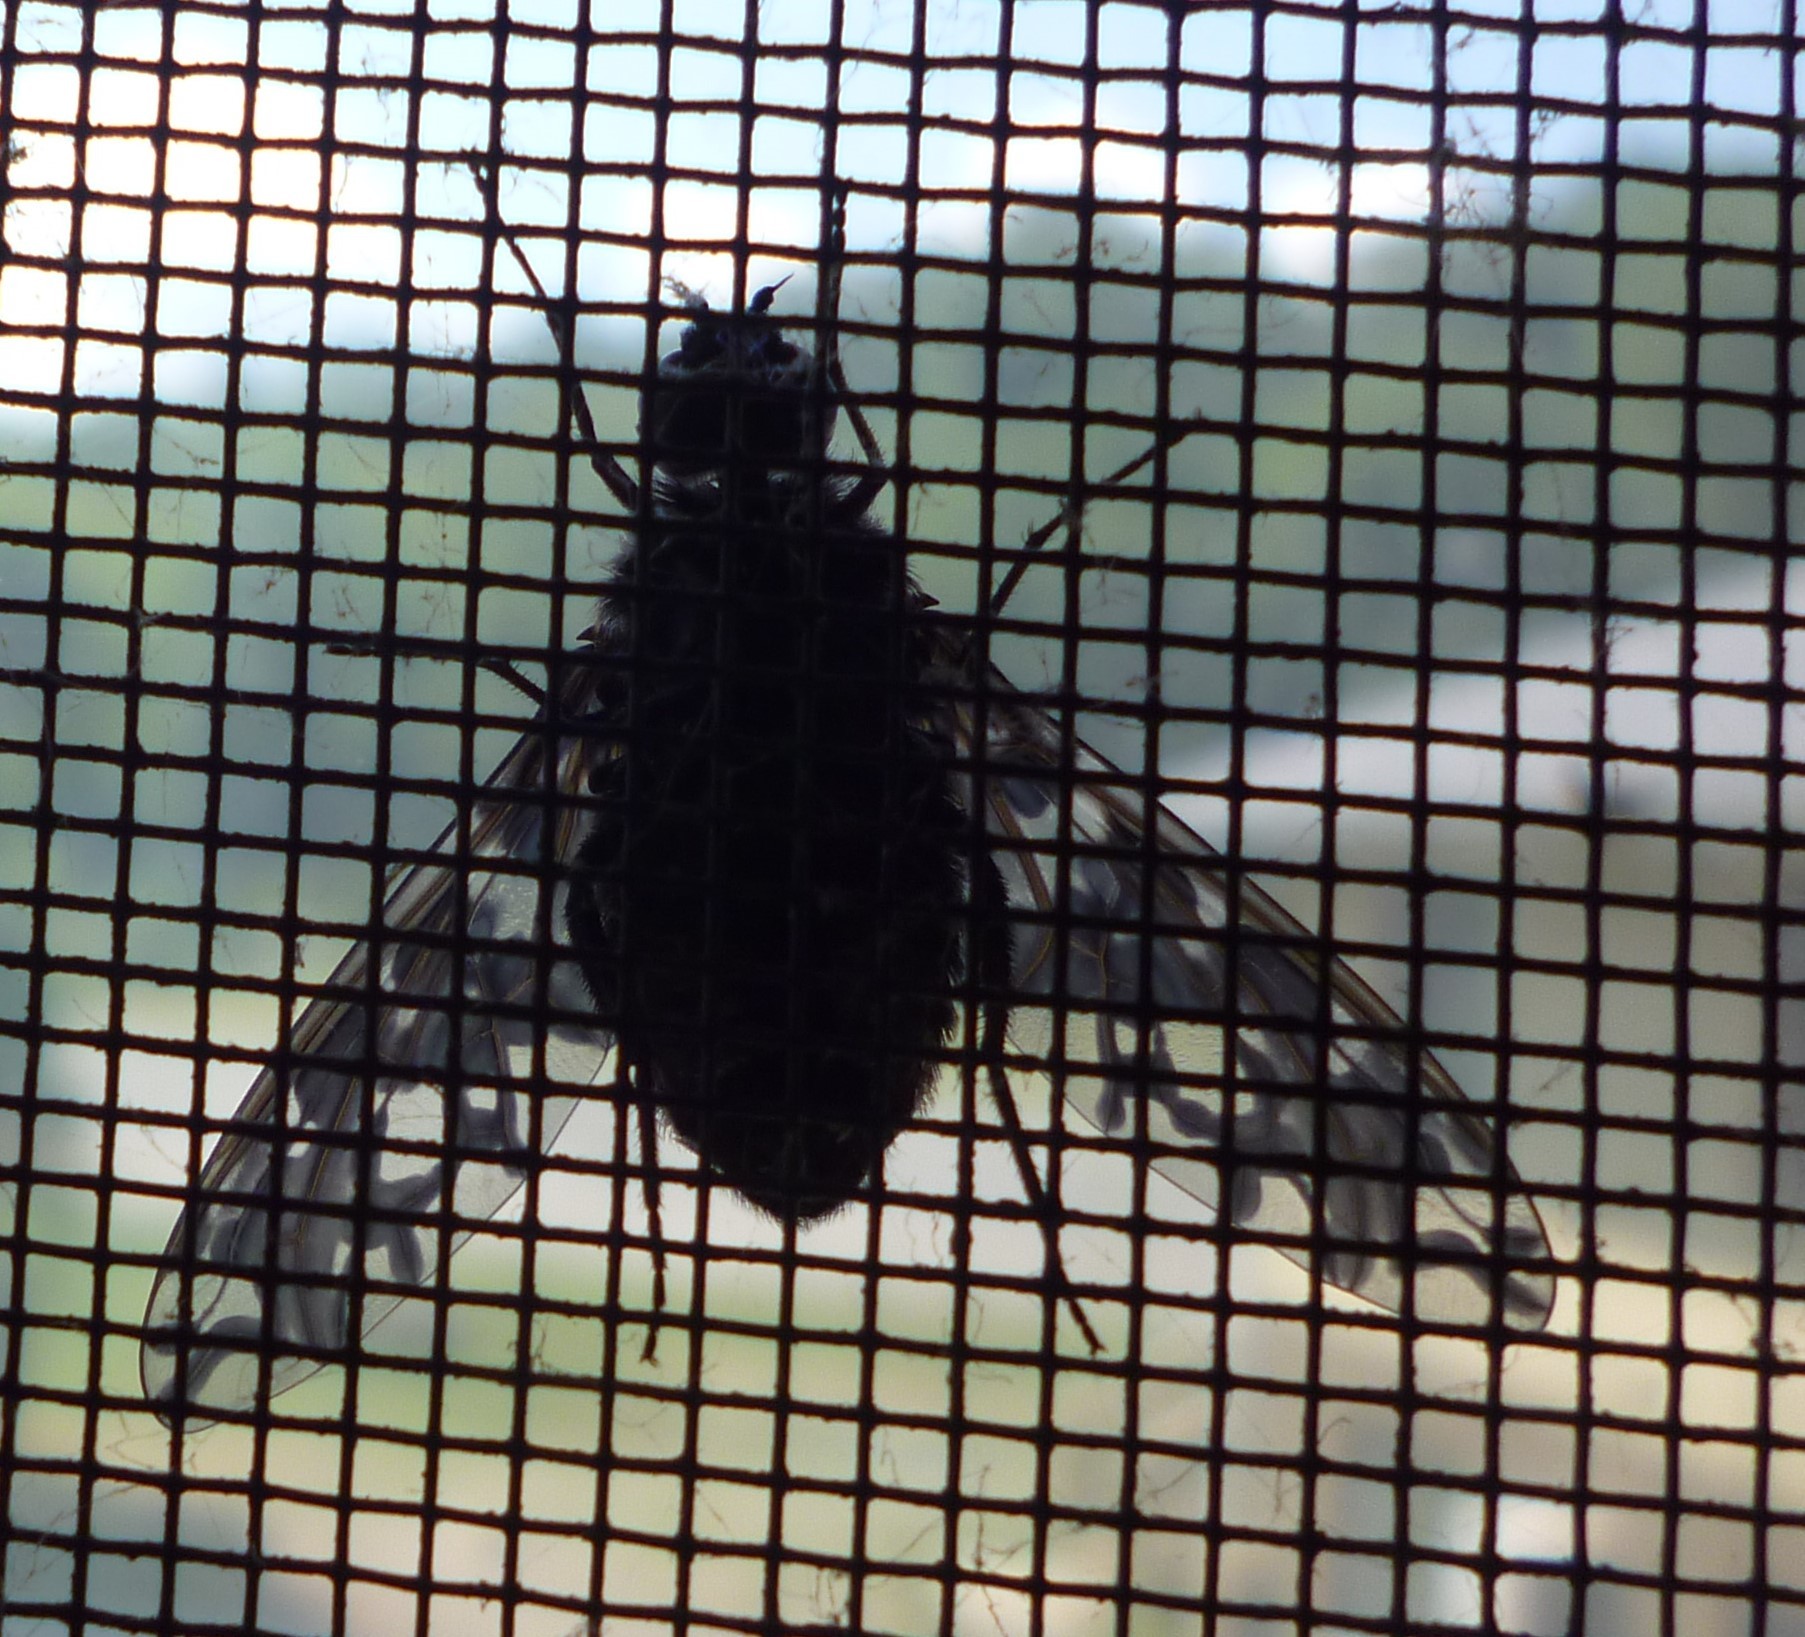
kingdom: Animalia
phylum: Arthropoda
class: Insecta
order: Diptera
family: Bombyliidae
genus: Xenox
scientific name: Xenox tigrinus
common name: Tiger bee fly
